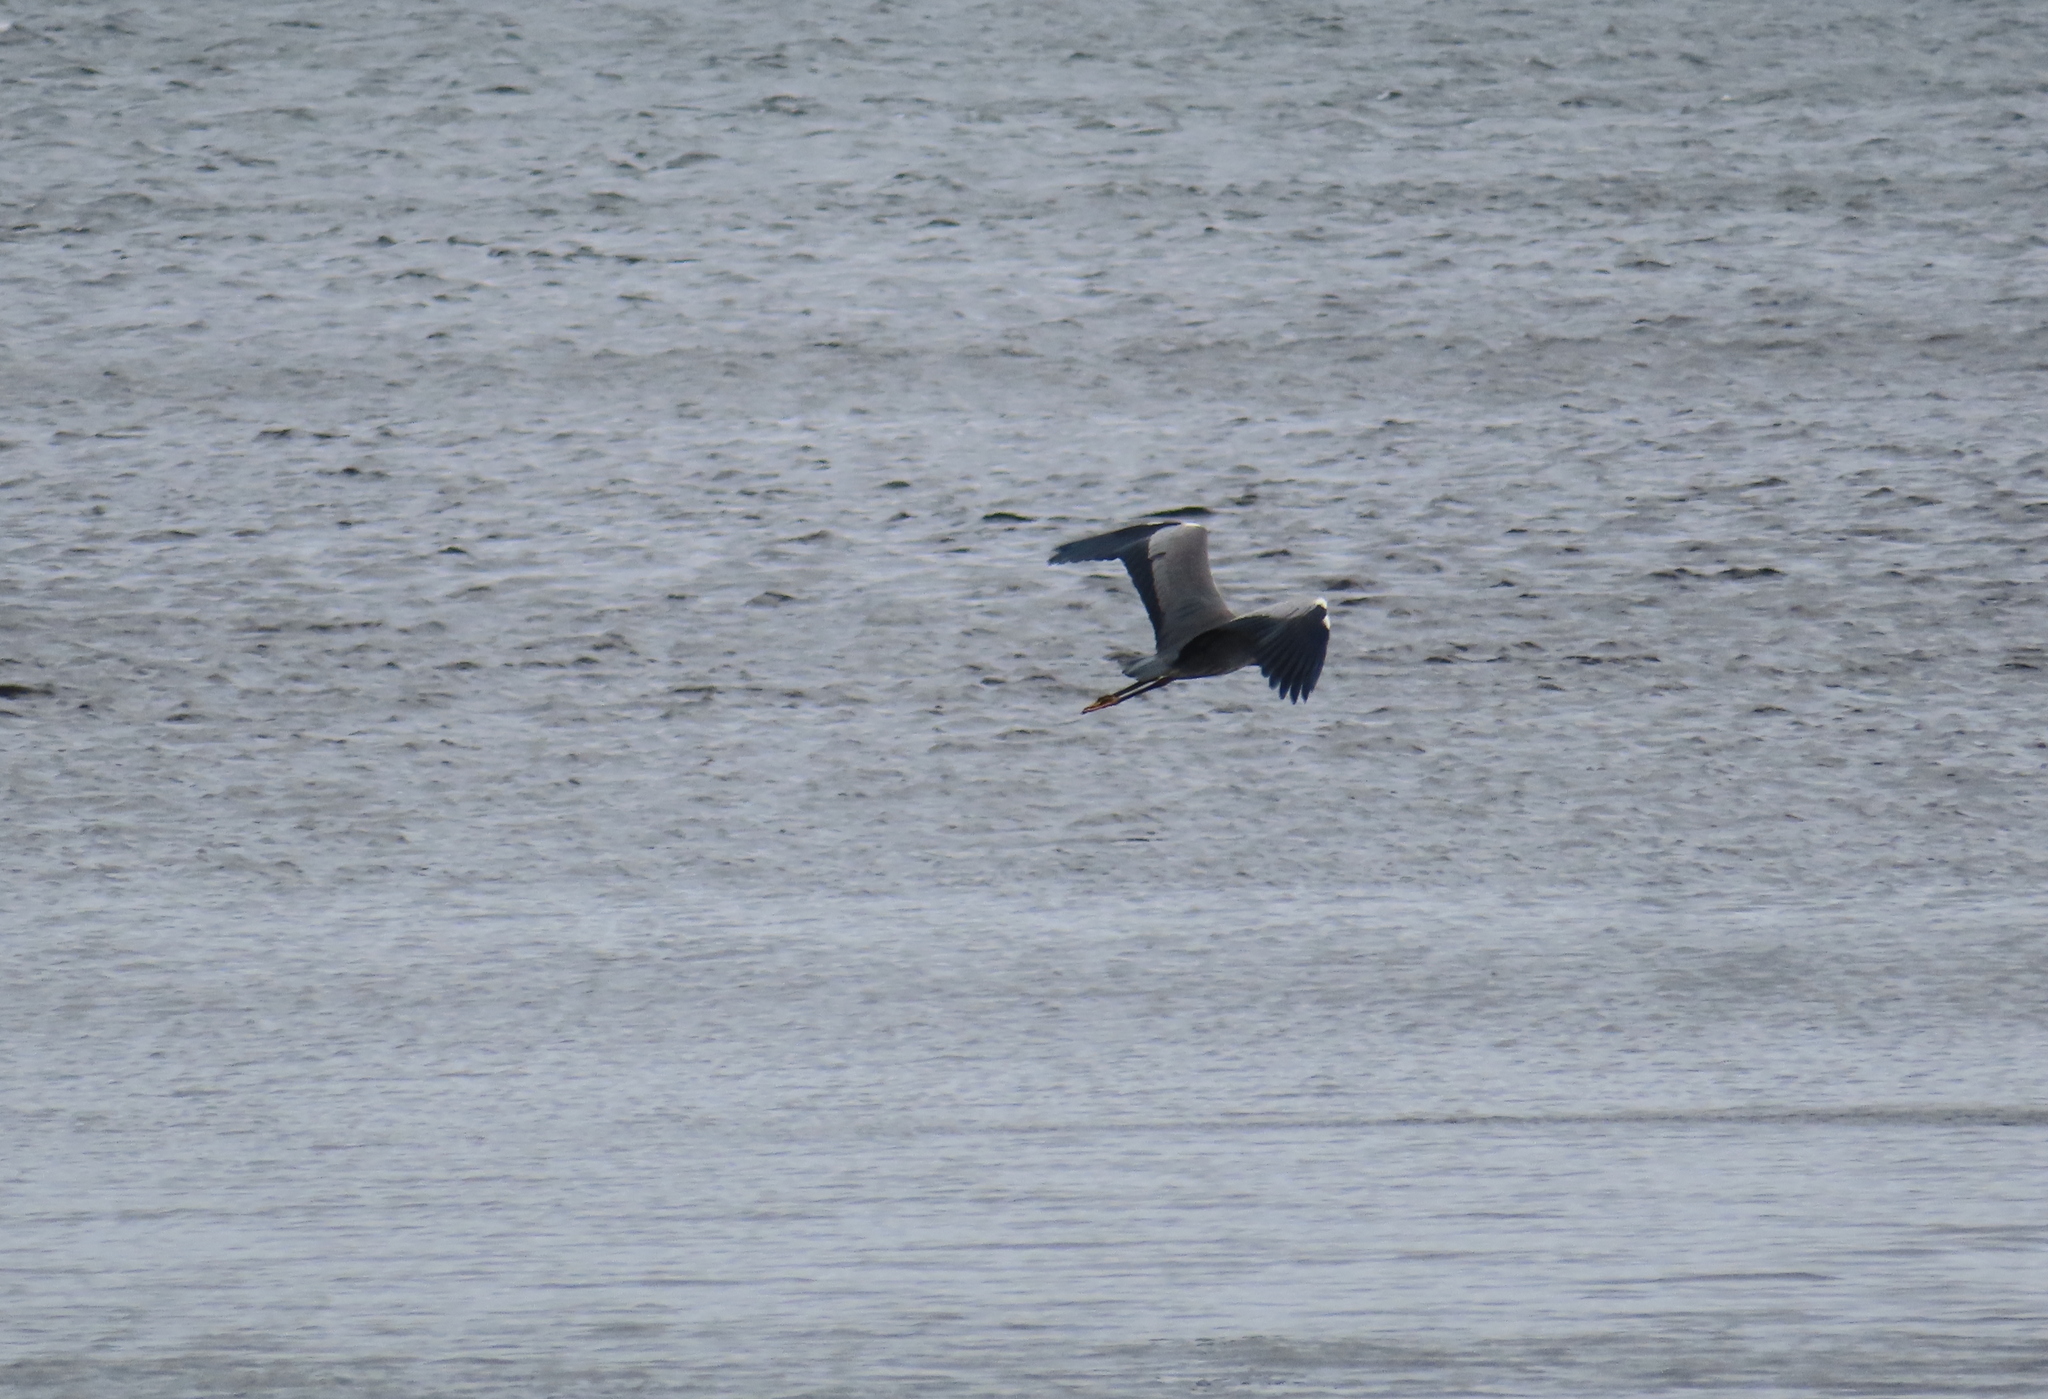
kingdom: Animalia
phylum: Chordata
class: Aves
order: Pelecaniformes
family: Ardeidae
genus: Ardea
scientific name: Ardea cinerea
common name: Grey heron
